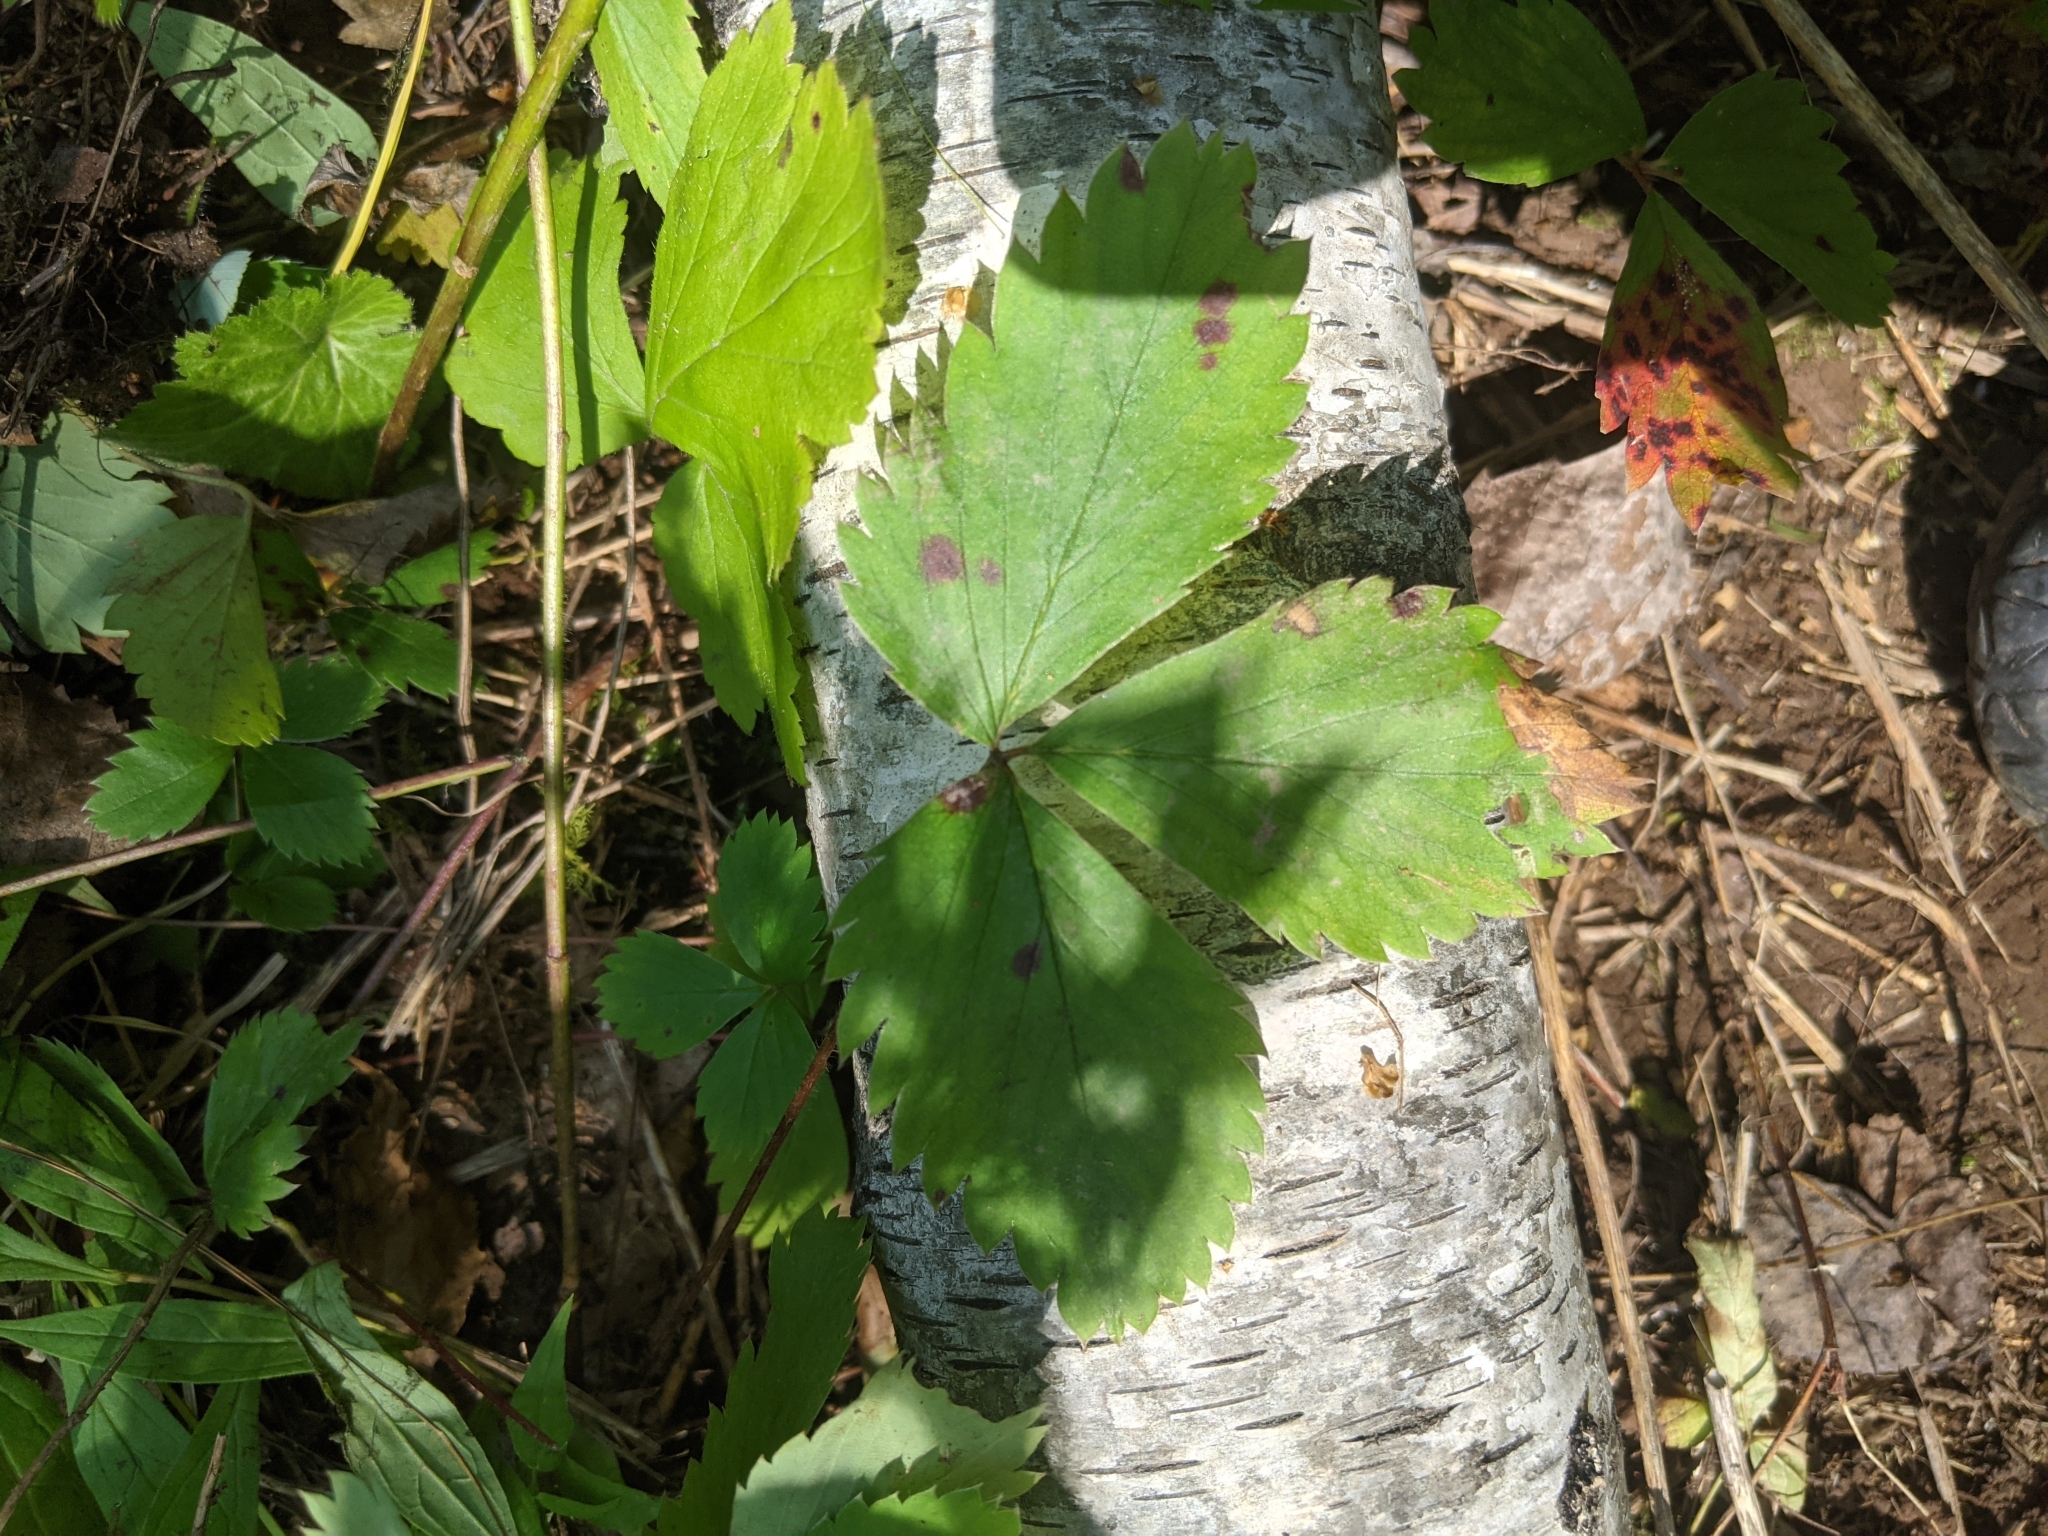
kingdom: Plantae
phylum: Tracheophyta
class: Magnoliopsida
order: Rosales
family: Rosaceae
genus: Fragaria
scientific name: Fragaria virginiana
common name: Thickleaved wild strawberry
